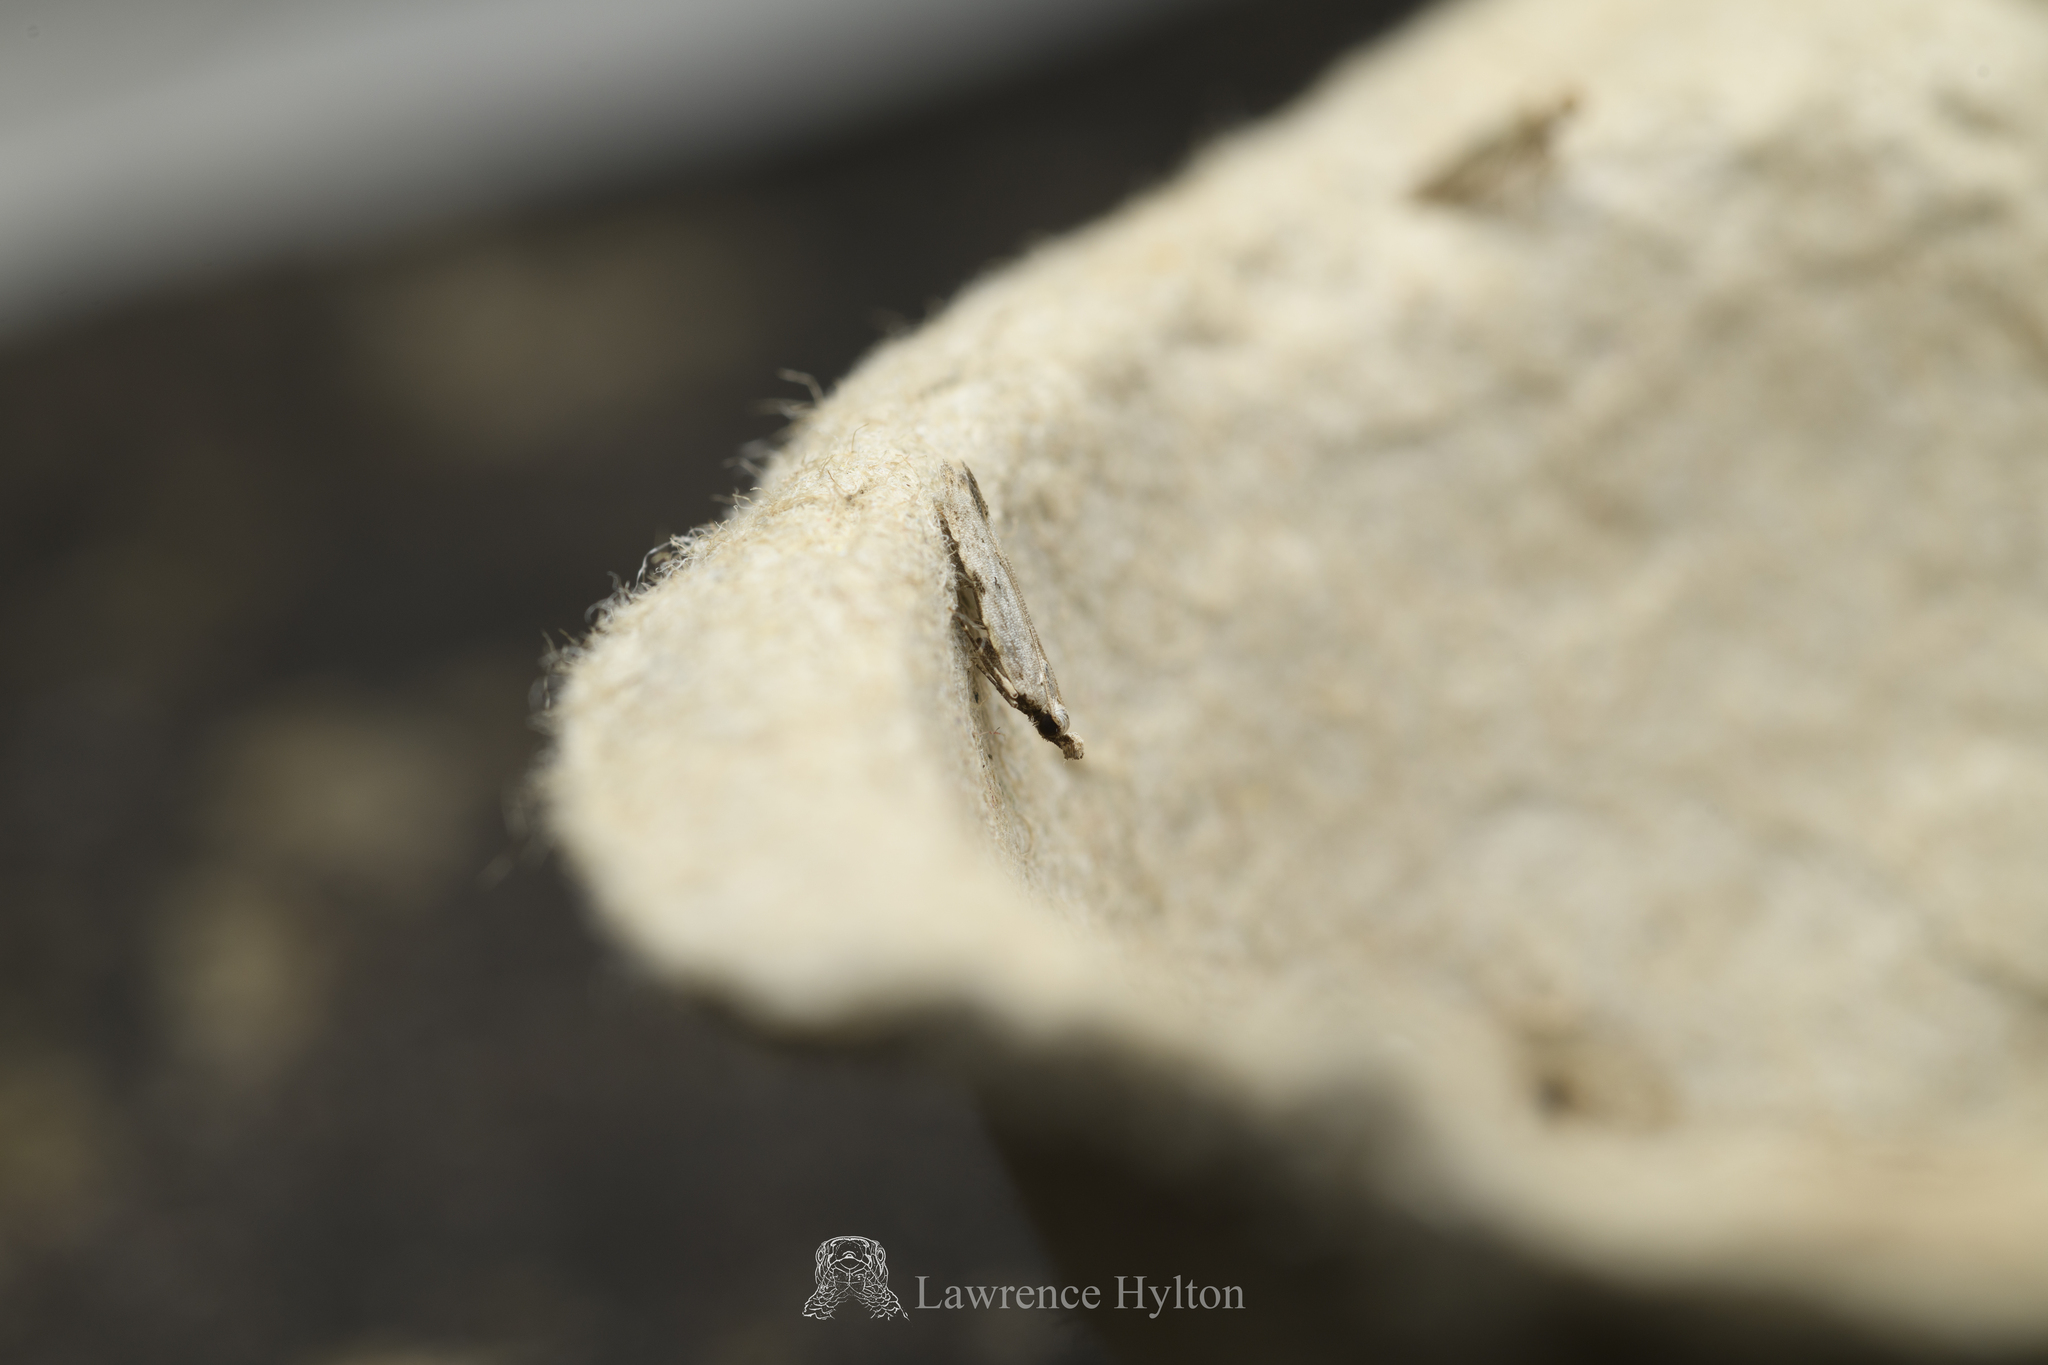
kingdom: Animalia
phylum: Arthropoda
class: Insecta
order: Lepidoptera
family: Gelechiidae
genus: Anarsia
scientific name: Anarsia patulella
